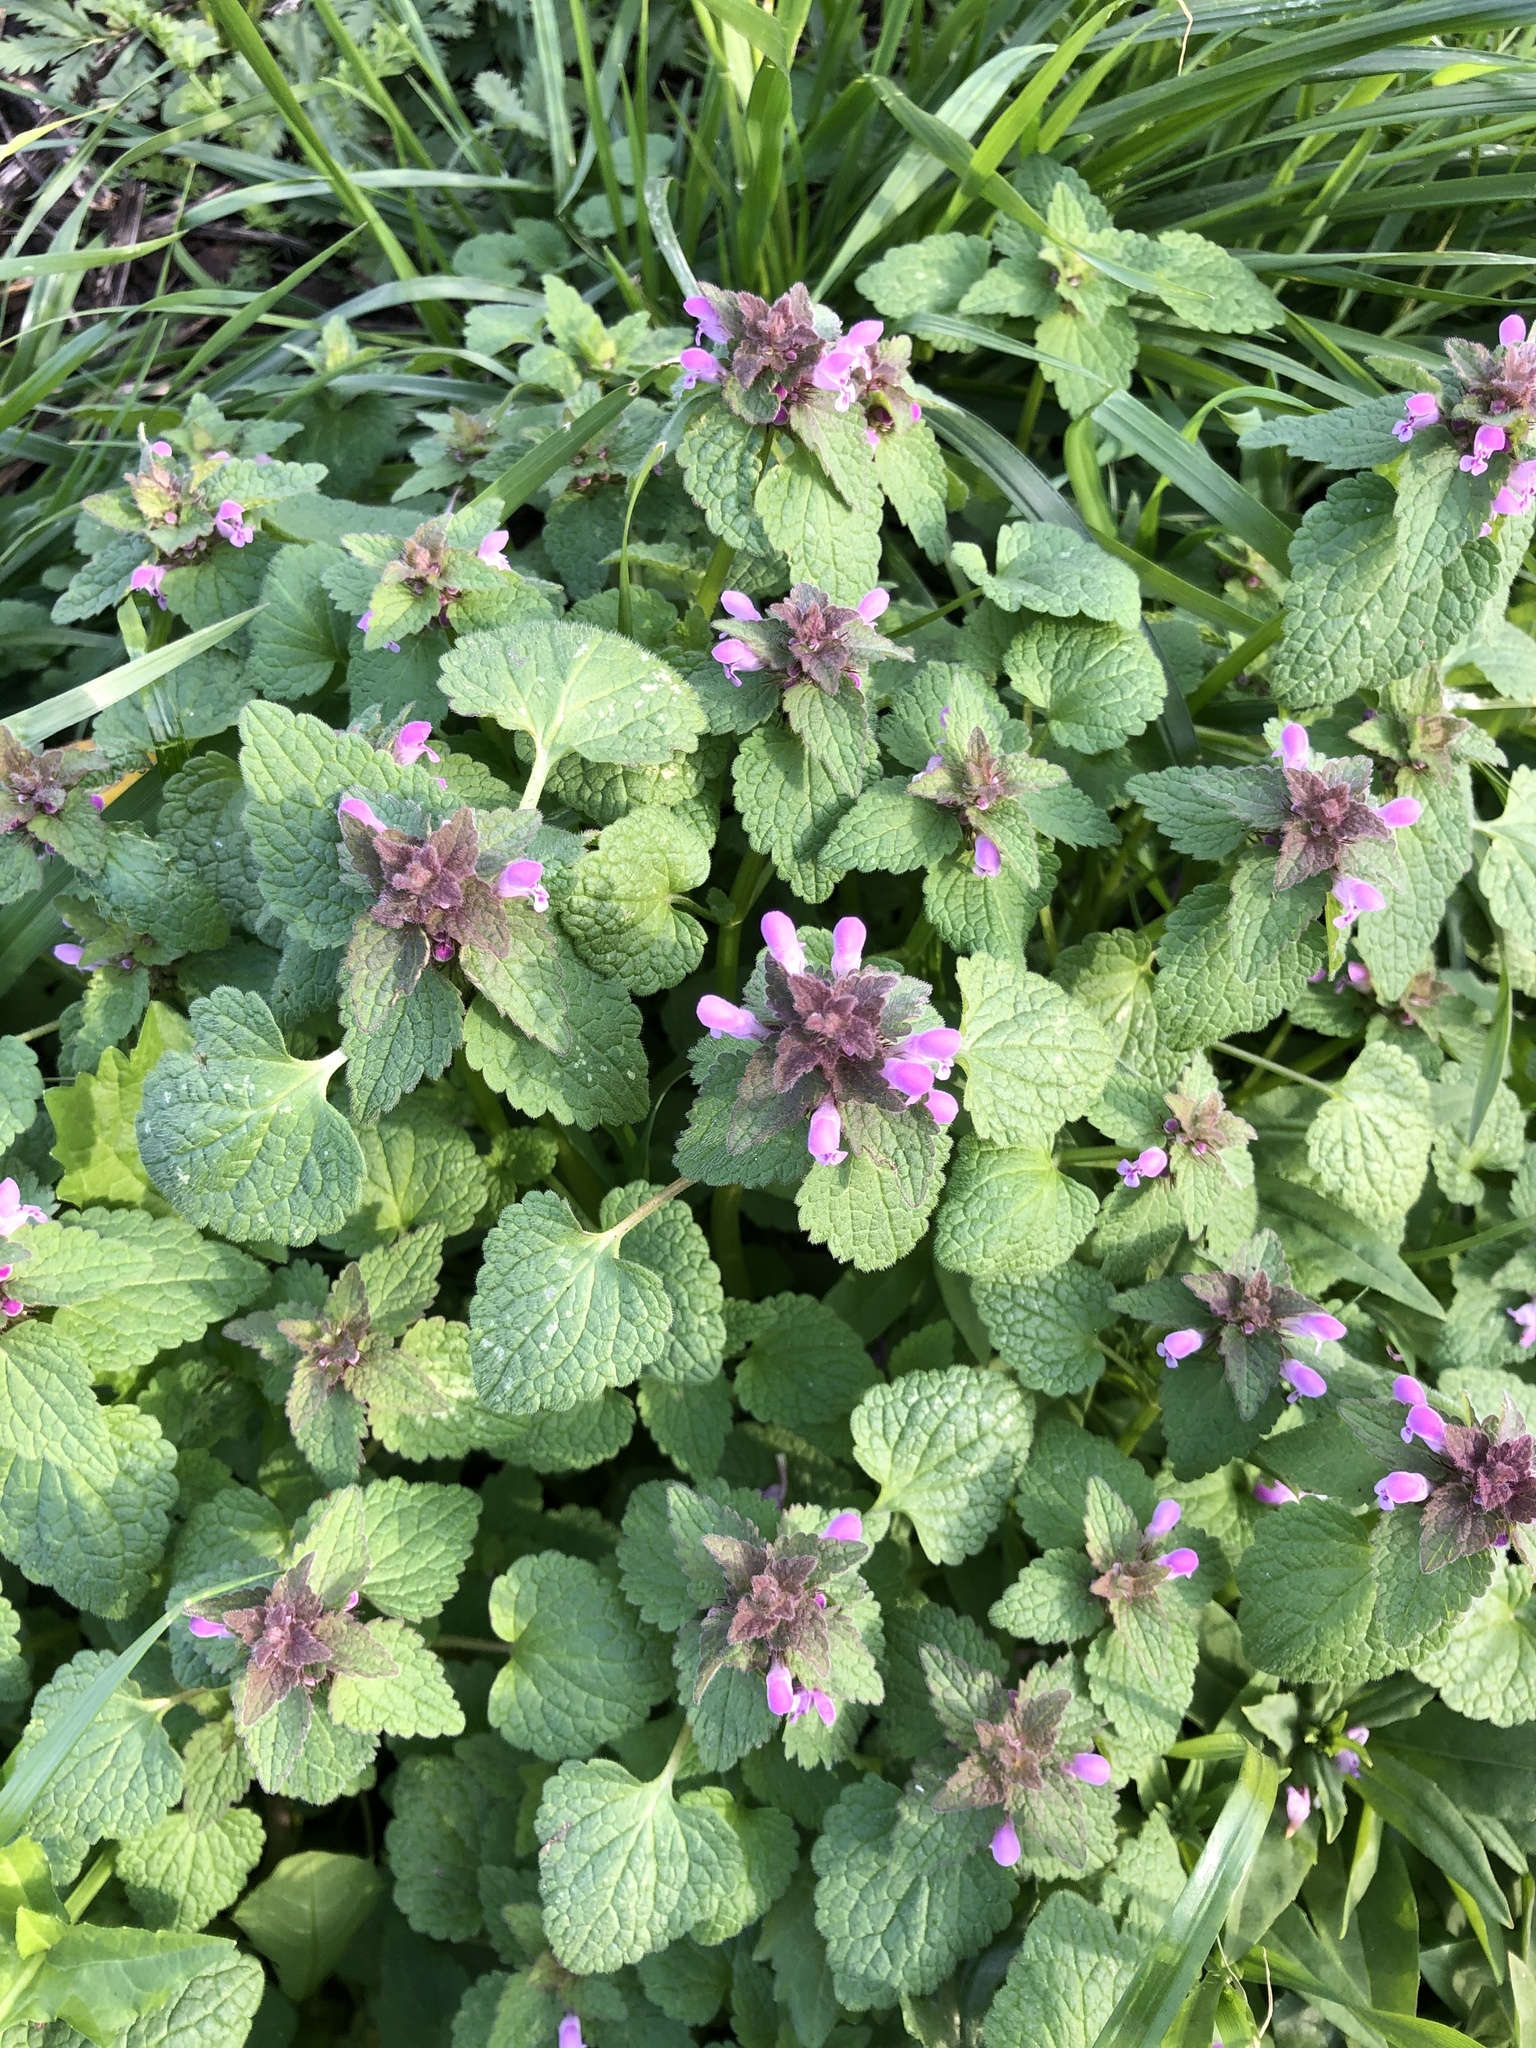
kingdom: Plantae
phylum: Tracheophyta
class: Magnoliopsida
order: Lamiales
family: Lamiaceae
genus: Lamium
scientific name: Lamium purpureum
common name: Red dead-nettle
